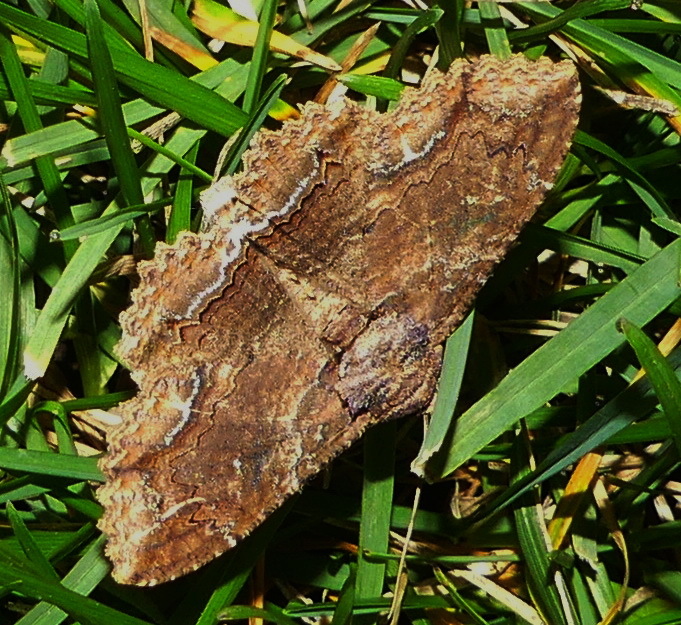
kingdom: Animalia
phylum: Arthropoda
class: Insecta
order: Lepidoptera
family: Erebidae
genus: Zale
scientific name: Zale lunata
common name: Lunate zale moth
